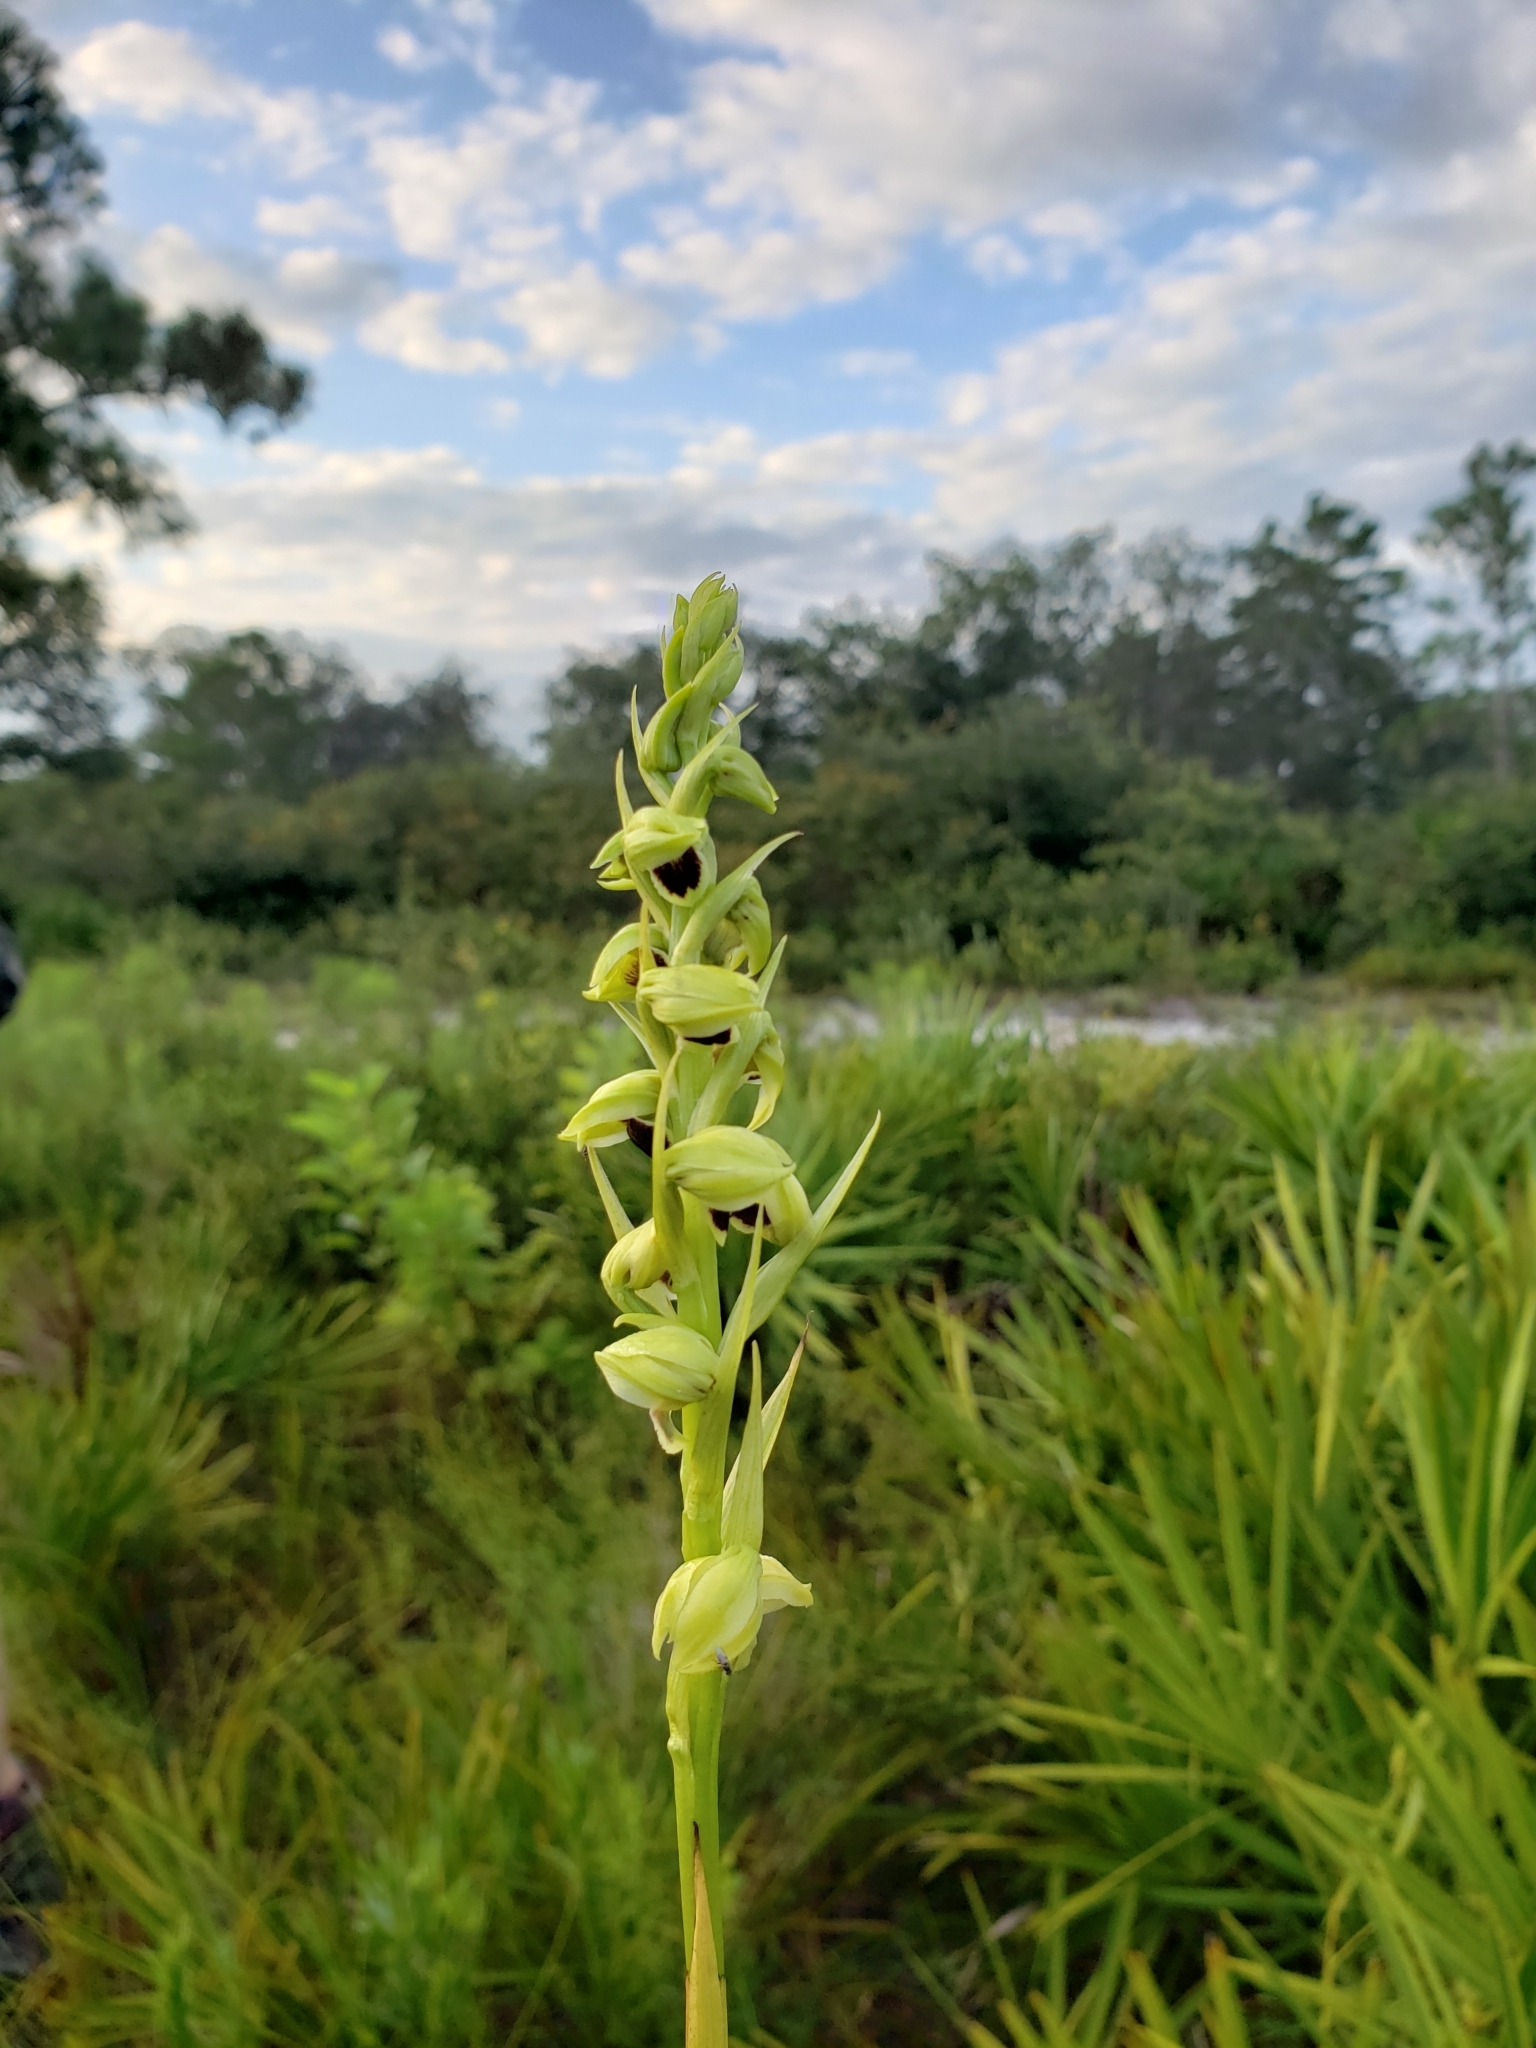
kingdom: Plantae
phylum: Tracheophyta
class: Liliopsida
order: Asparagales
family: Orchidaceae
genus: Eulophia
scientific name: Eulophia ecristata
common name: Giant orchid
